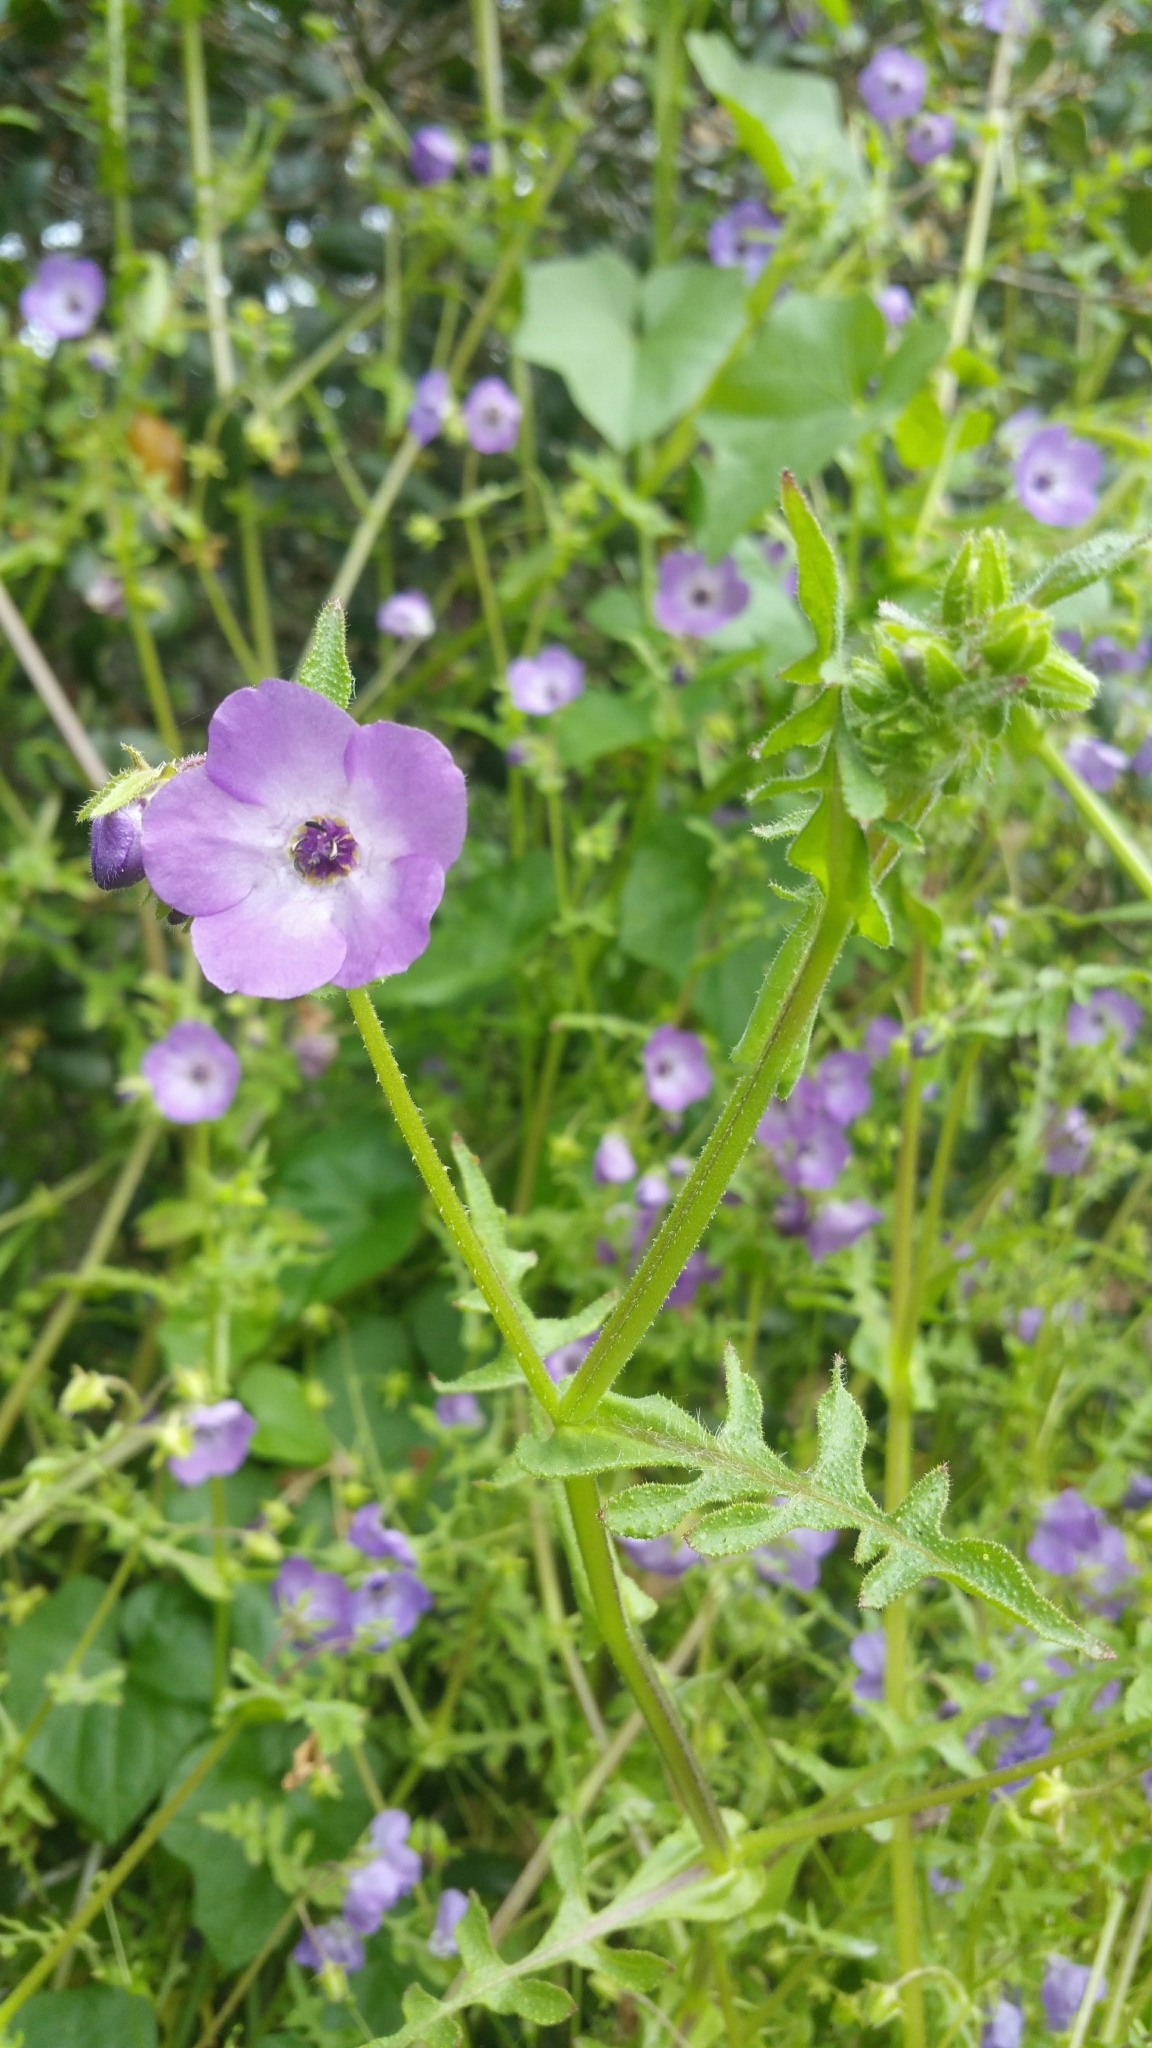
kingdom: Plantae
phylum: Tracheophyta
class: Magnoliopsida
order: Boraginales
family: Hydrophyllaceae
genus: Pholistoma
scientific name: Pholistoma auritum
